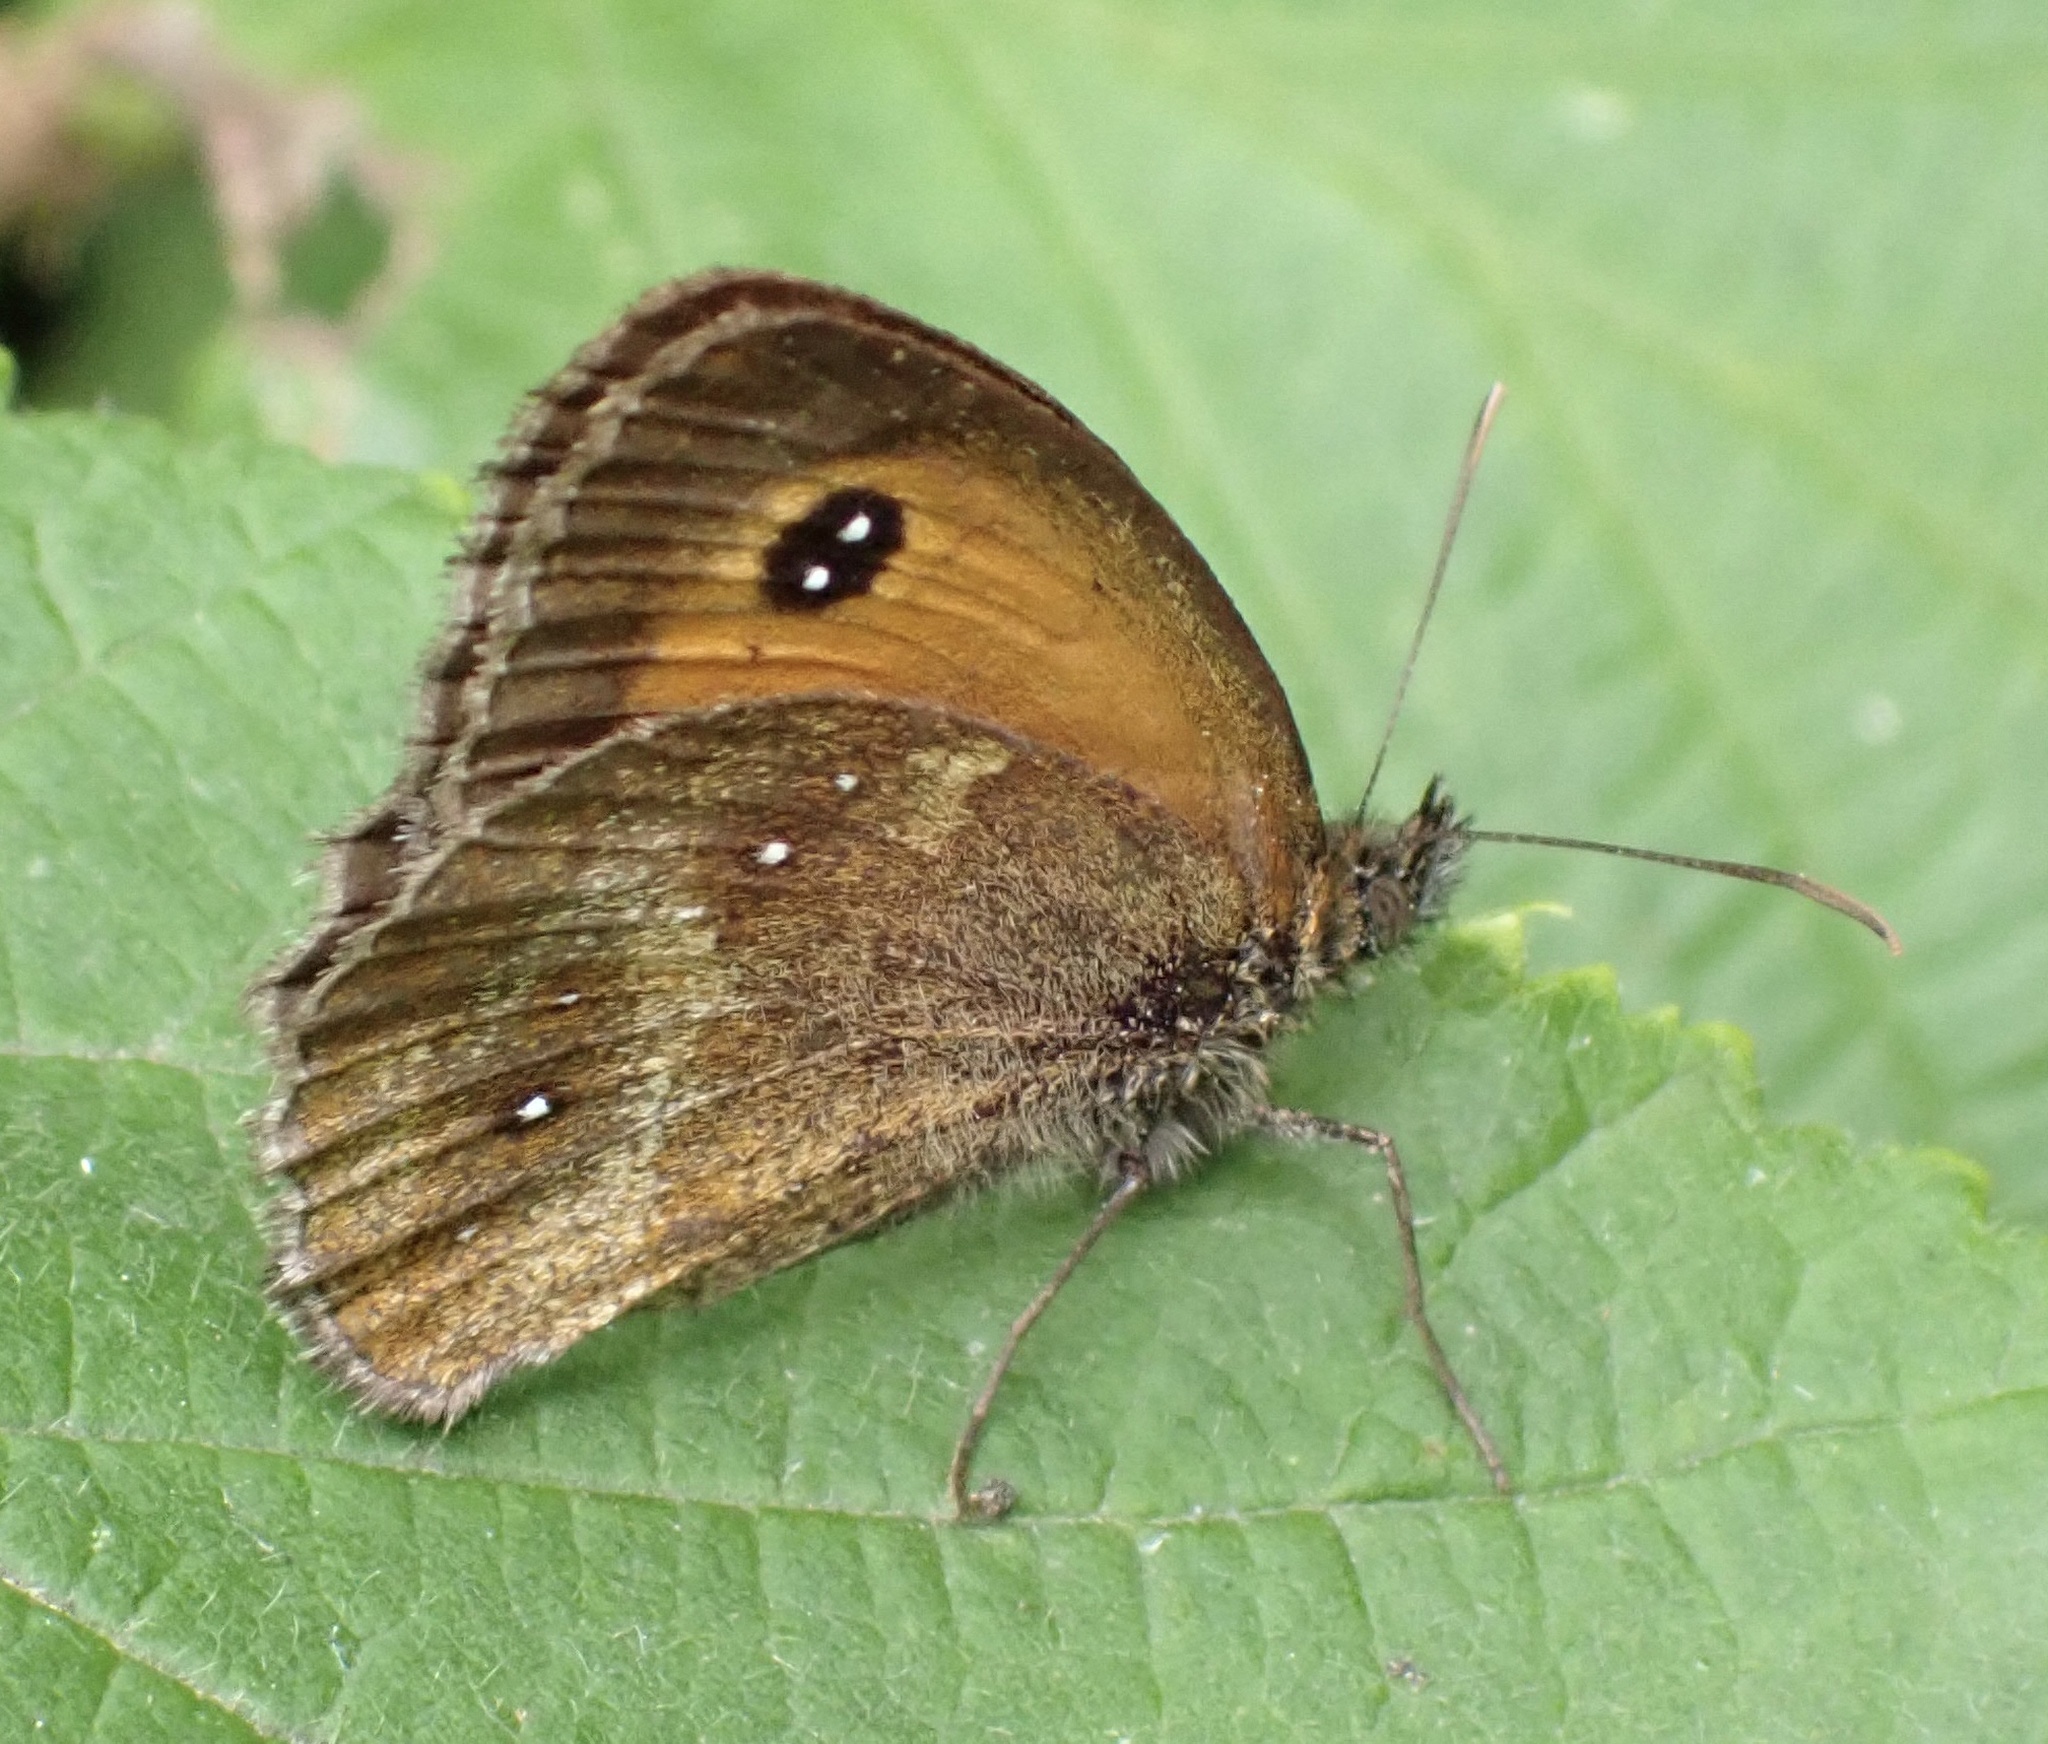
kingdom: Animalia
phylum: Arthropoda
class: Insecta
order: Lepidoptera
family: Nymphalidae
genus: Pyronia
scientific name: Pyronia tithonus
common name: Gatekeeper
